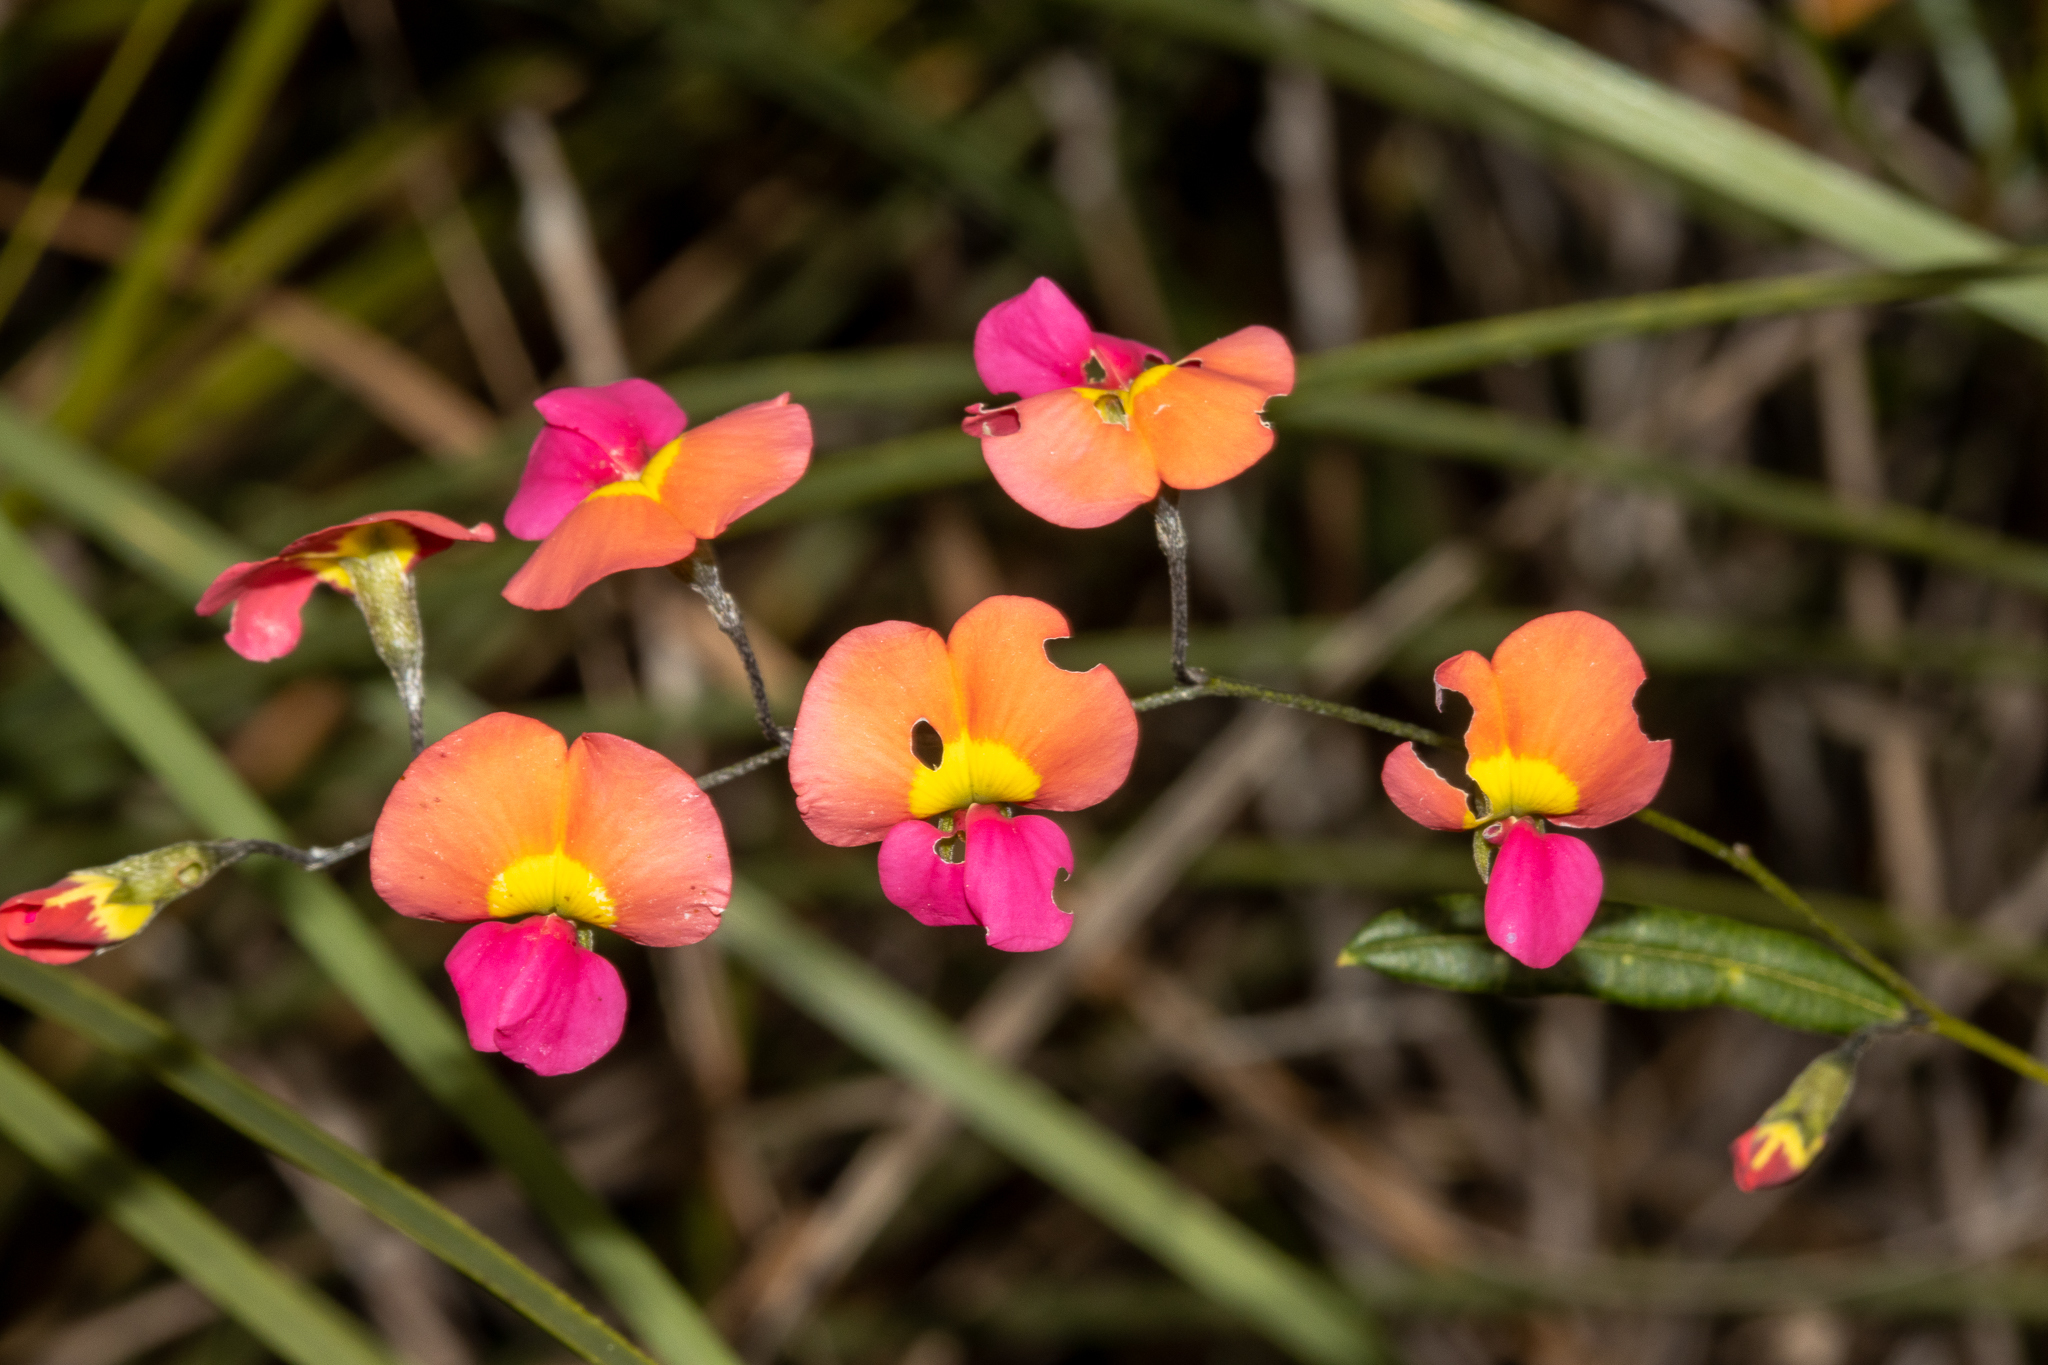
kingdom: Plantae
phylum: Tracheophyta
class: Magnoliopsida
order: Fabales
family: Fabaceae
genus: Chorizema
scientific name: Chorizema diversifolium
